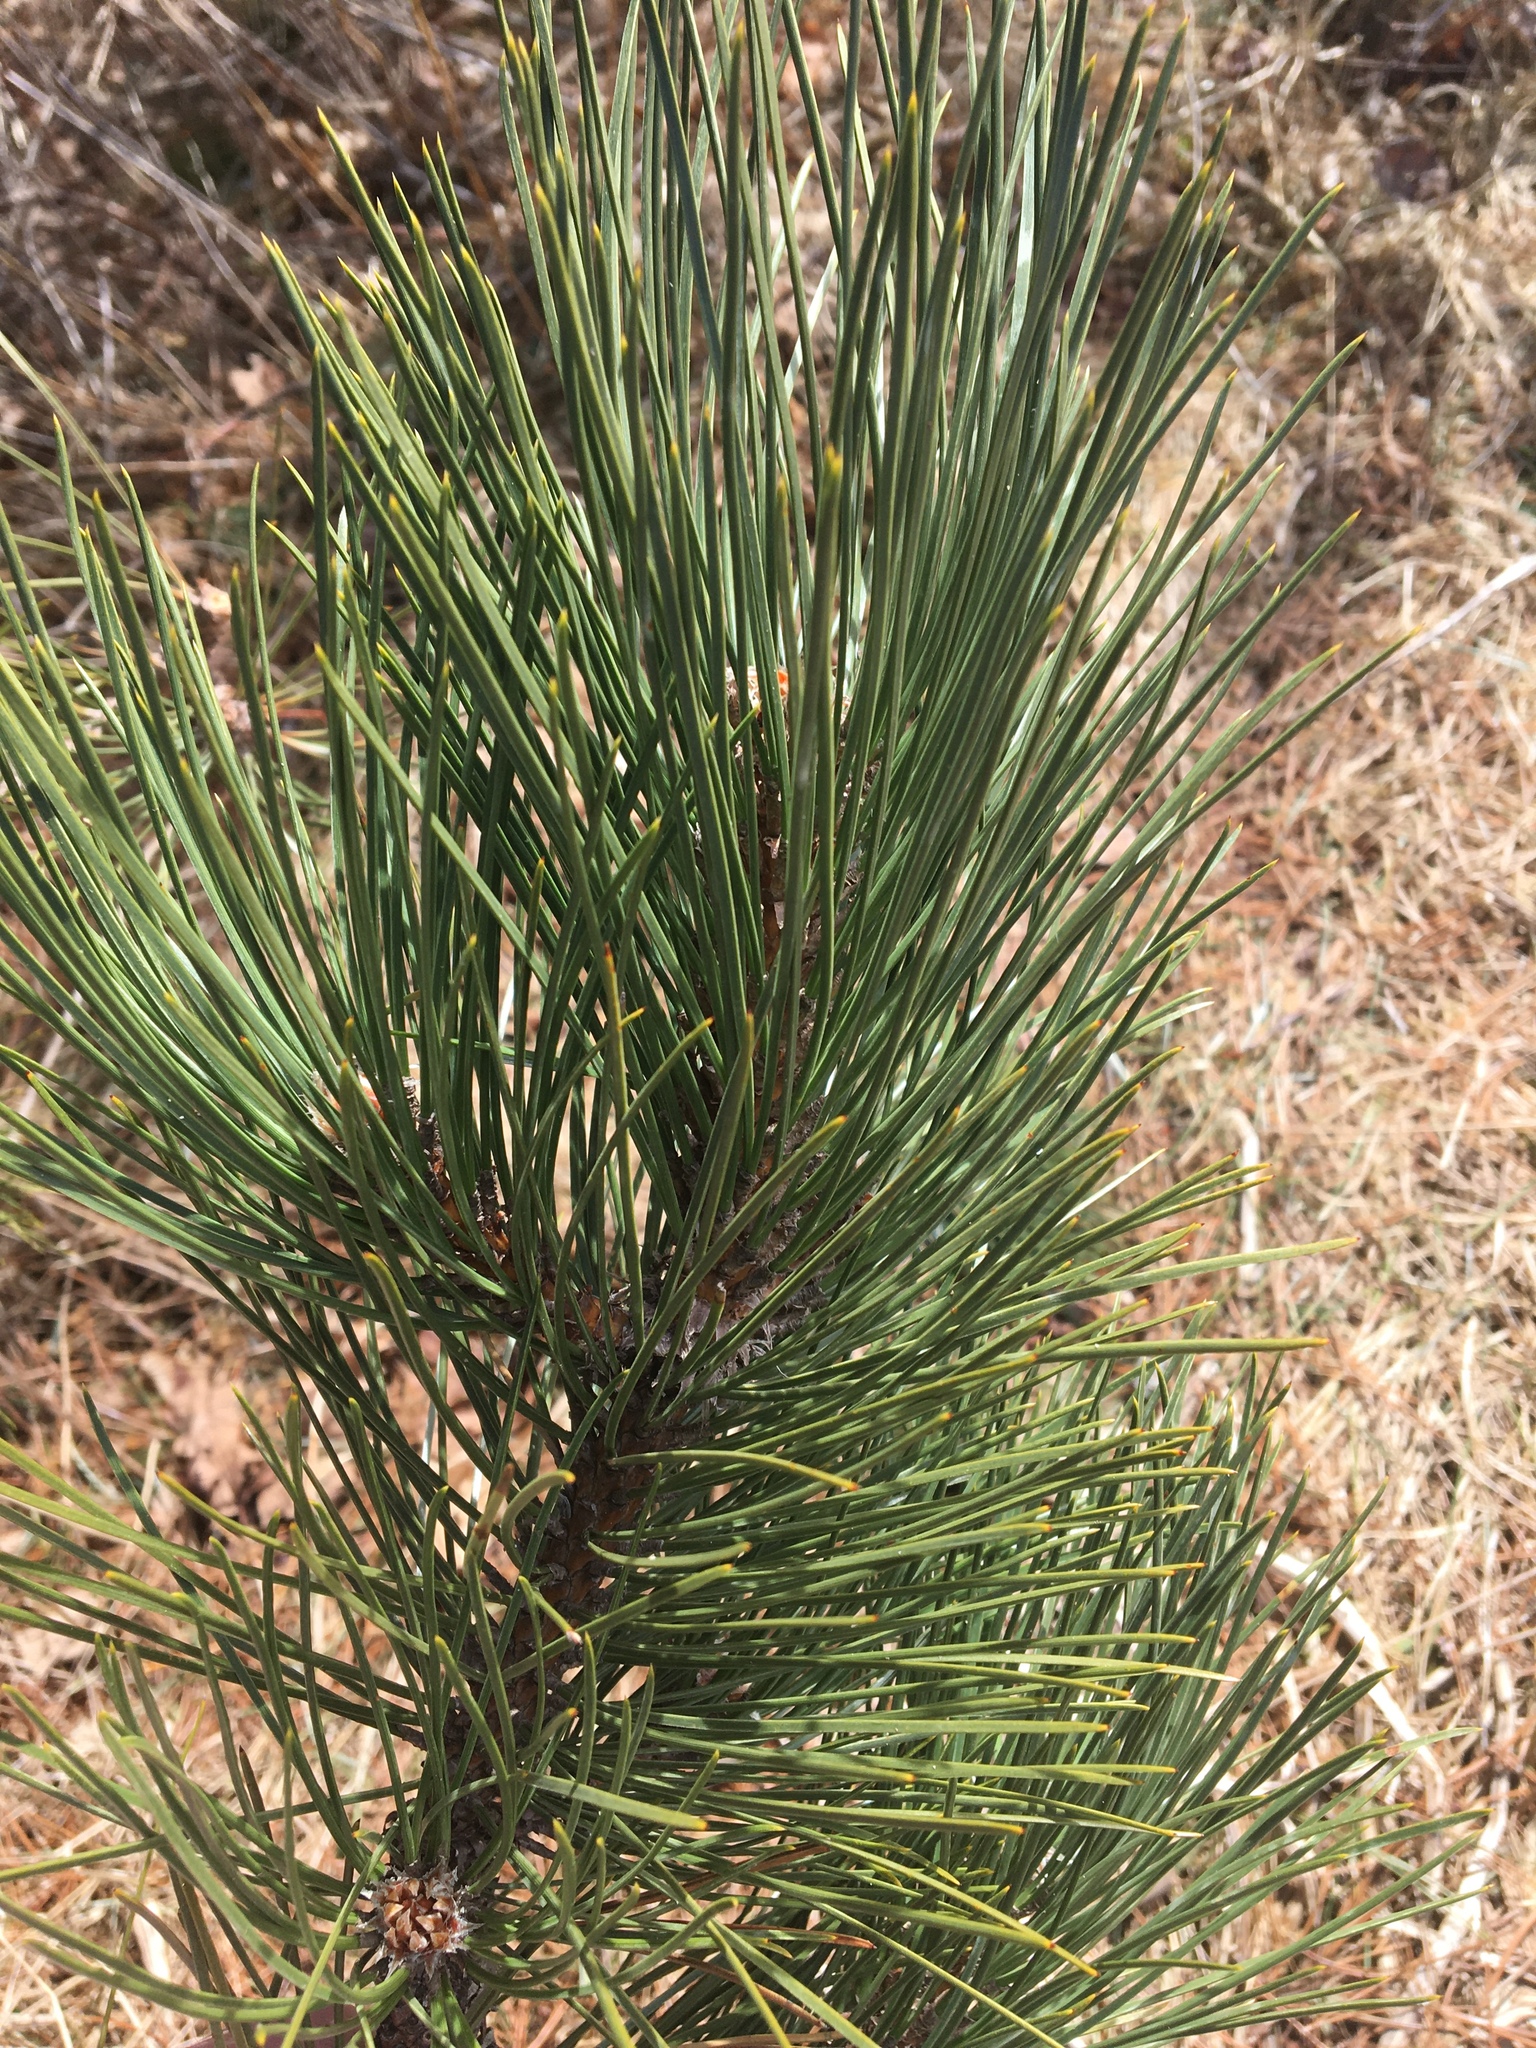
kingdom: Plantae
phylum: Tracheophyta
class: Pinopsida
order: Pinales
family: Pinaceae
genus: Pinus
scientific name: Pinus resinosa
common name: Norway pine
